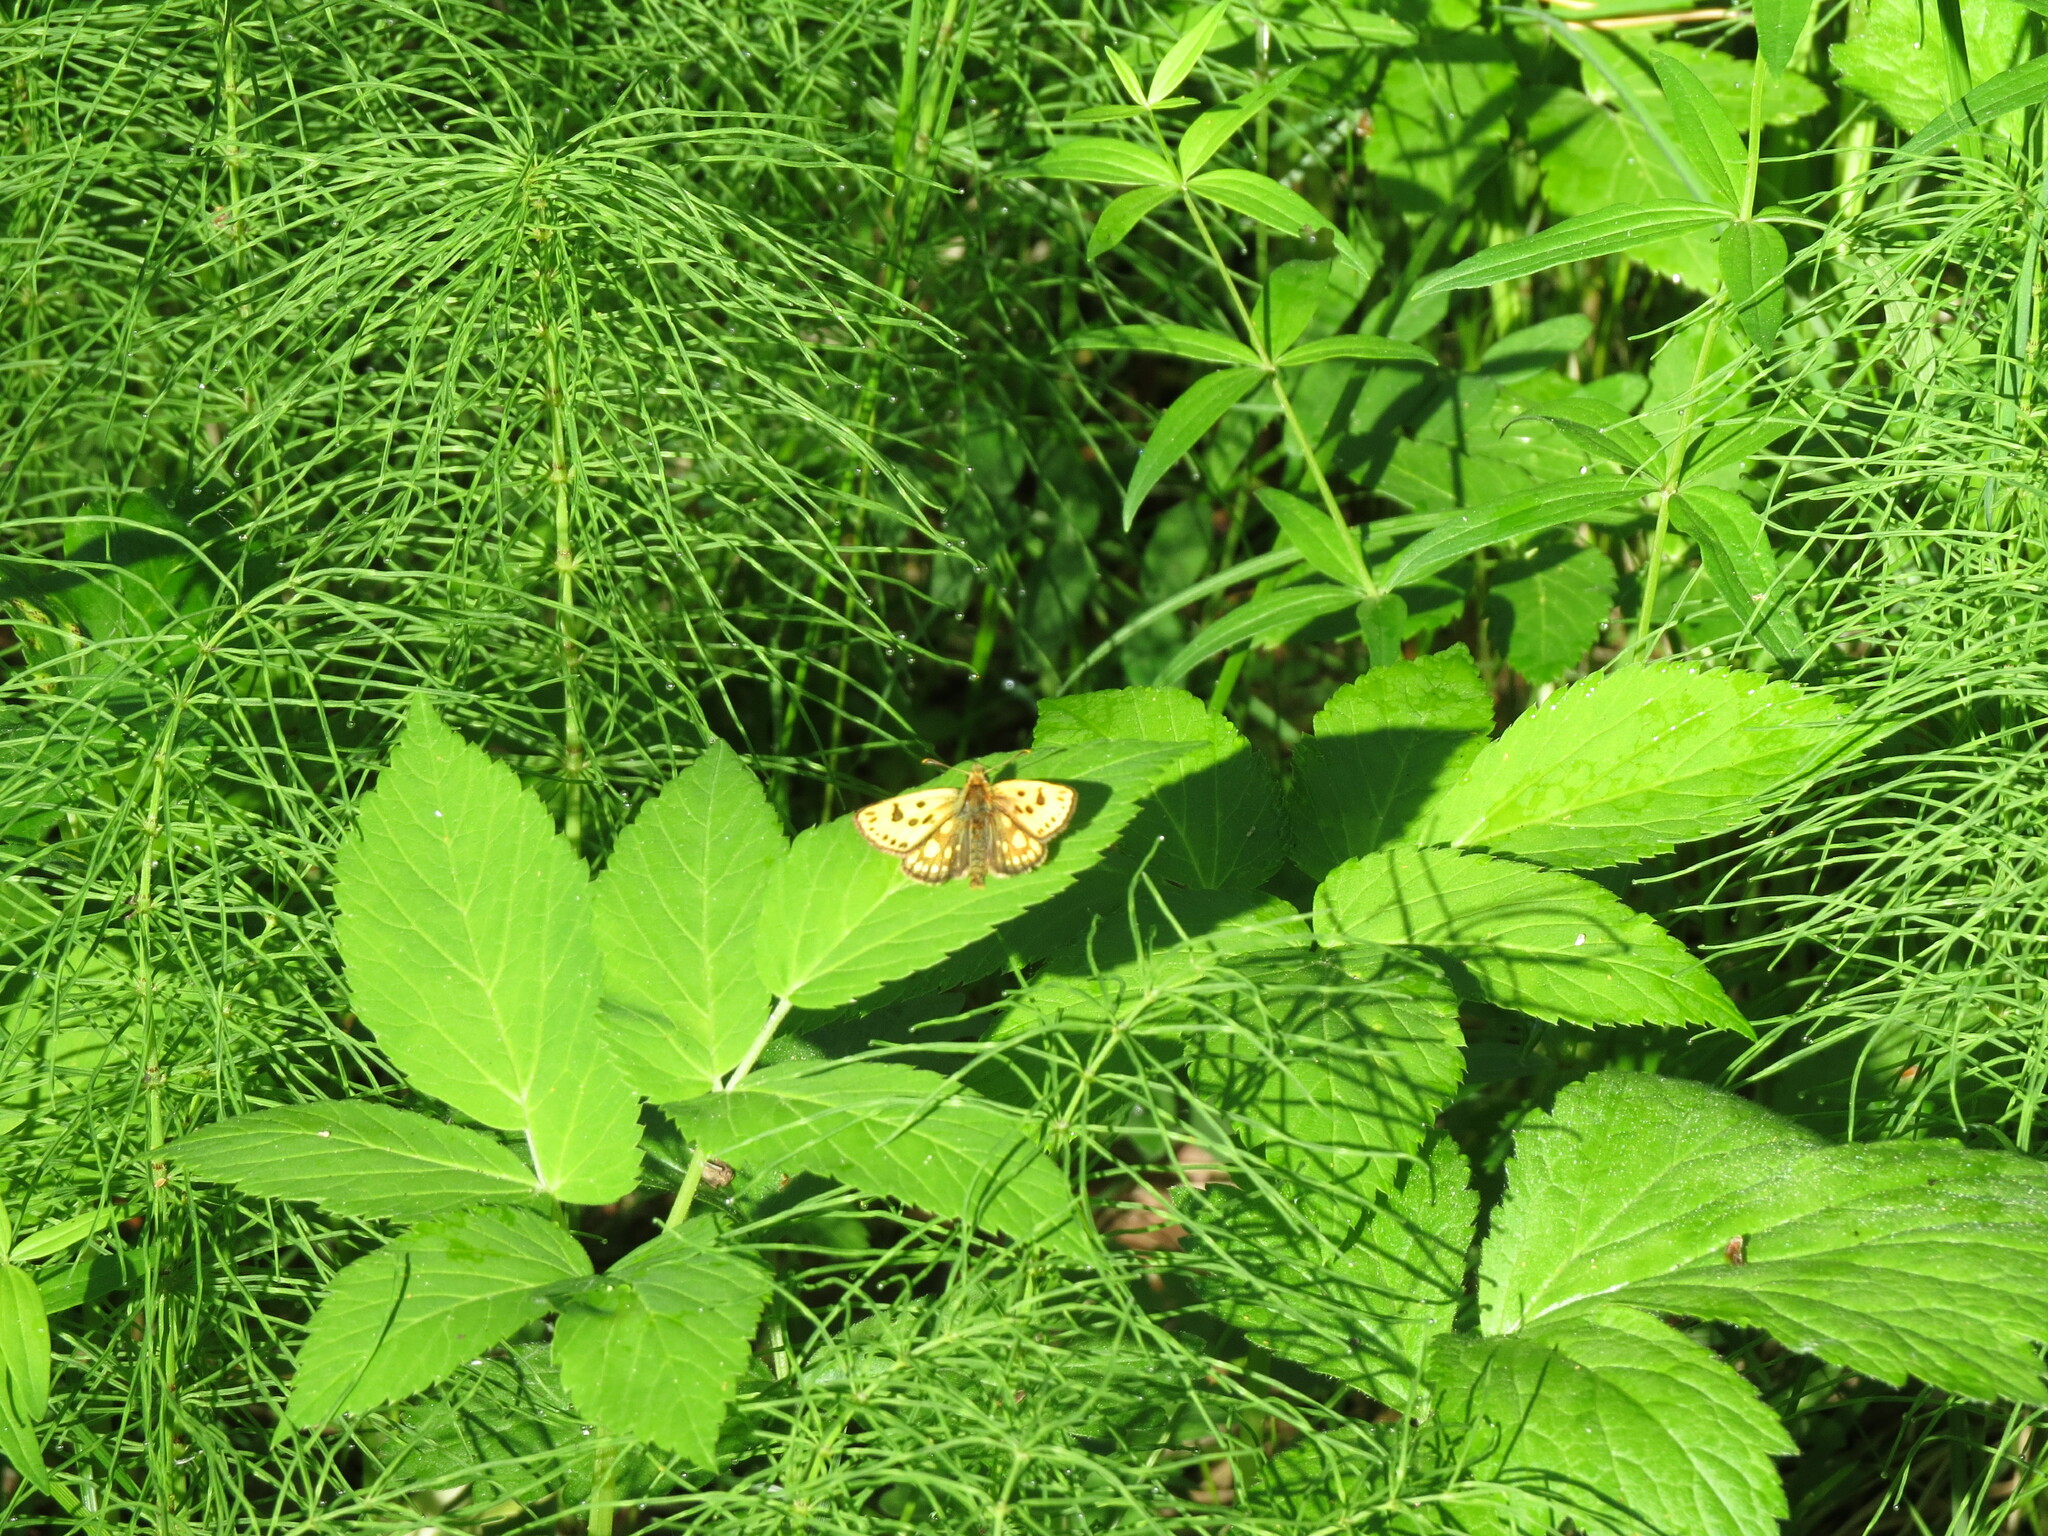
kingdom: Animalia
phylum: Arthropoda
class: Insecta
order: Lepidoptera
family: Hesperiidae
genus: Carterocephalus
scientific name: Carterocephalus silvicola
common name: Northern chequered skipper
